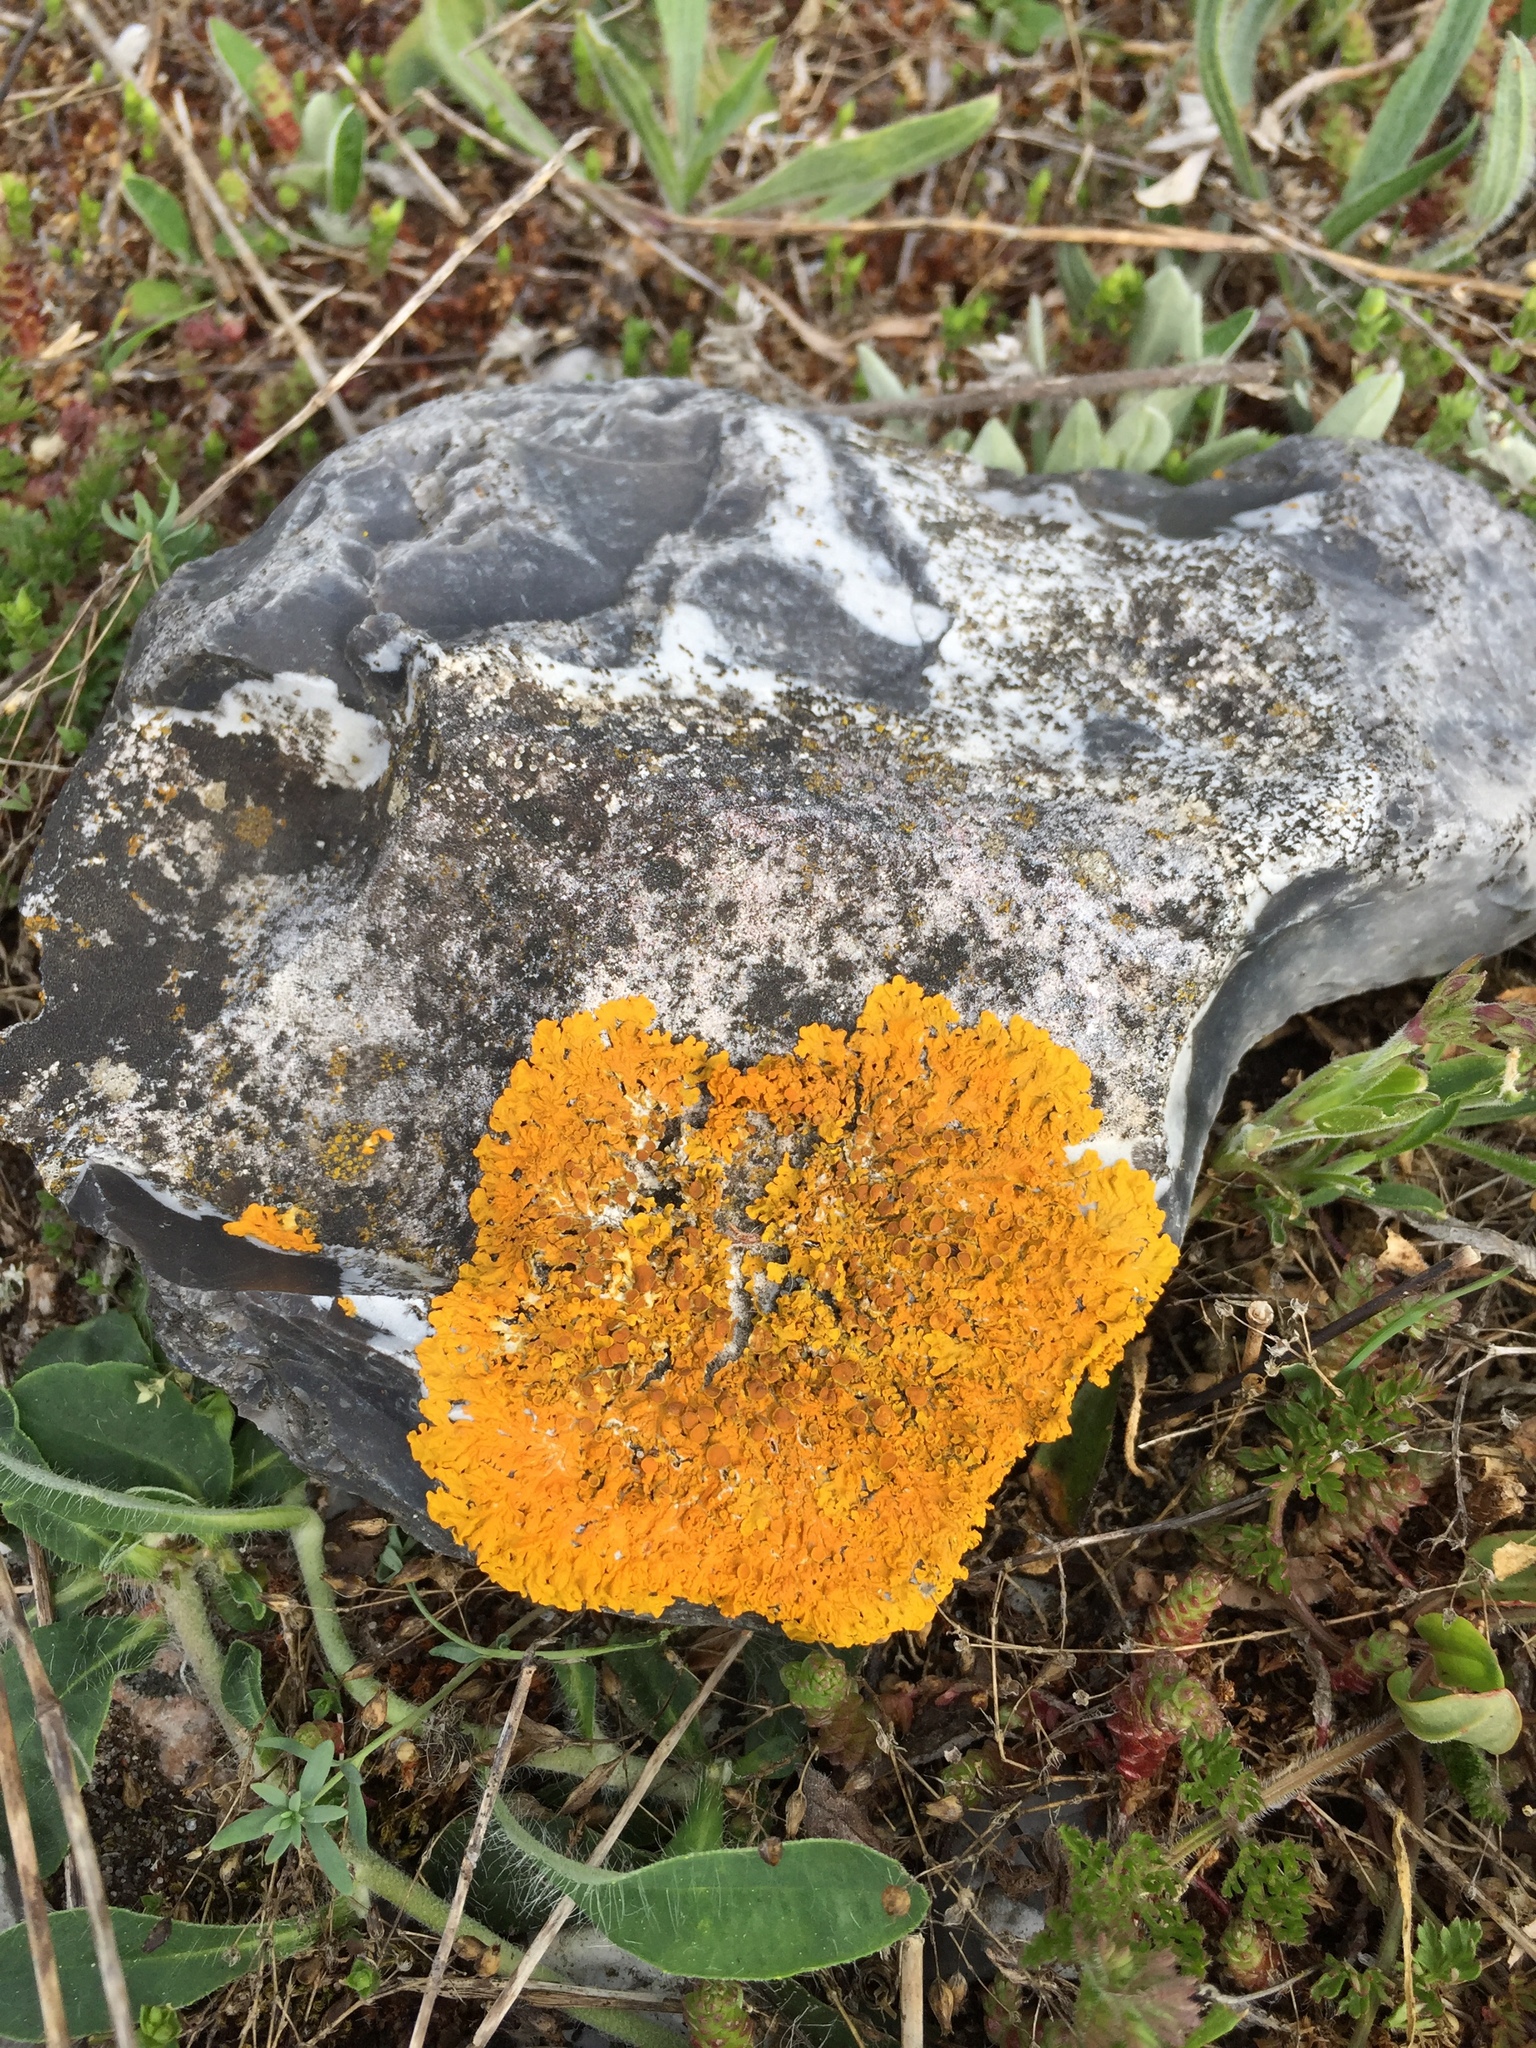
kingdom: Fungi
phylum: Ascomycota
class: Lecanoromycetes
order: Teloschistales
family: Teloschistaceae
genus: Xanthoria
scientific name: Xanthoria parietina
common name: Common orange lichen
